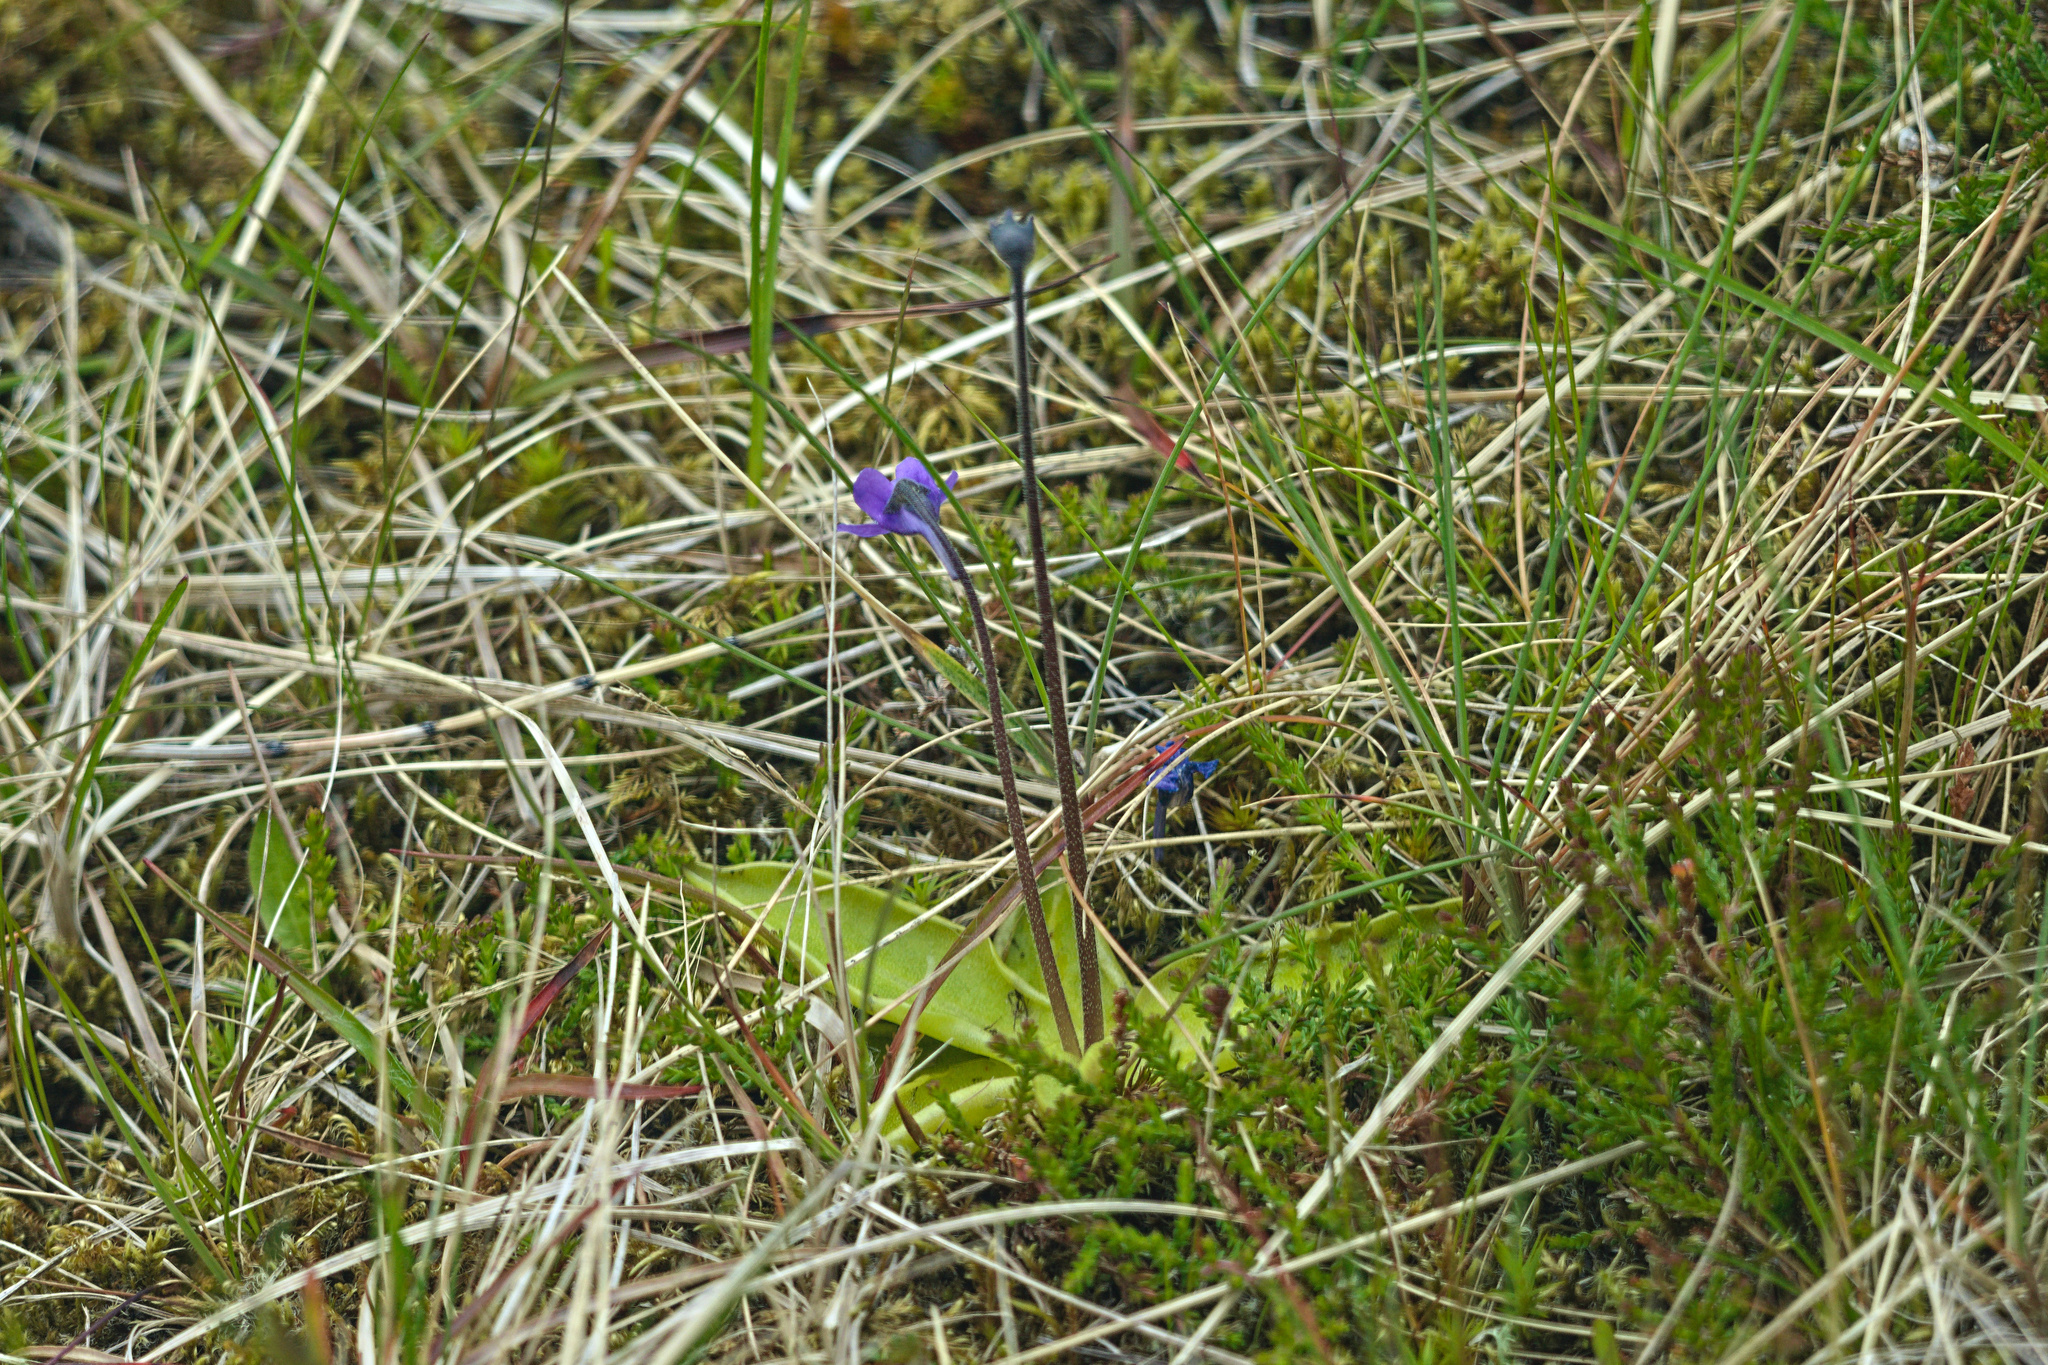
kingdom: Plantae
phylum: Tracheophyta
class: Magnoliopsida
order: Lamiales
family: Lentibulariaceae
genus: Pinguicula
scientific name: Pinguicula vulgaris
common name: Common butterwort
